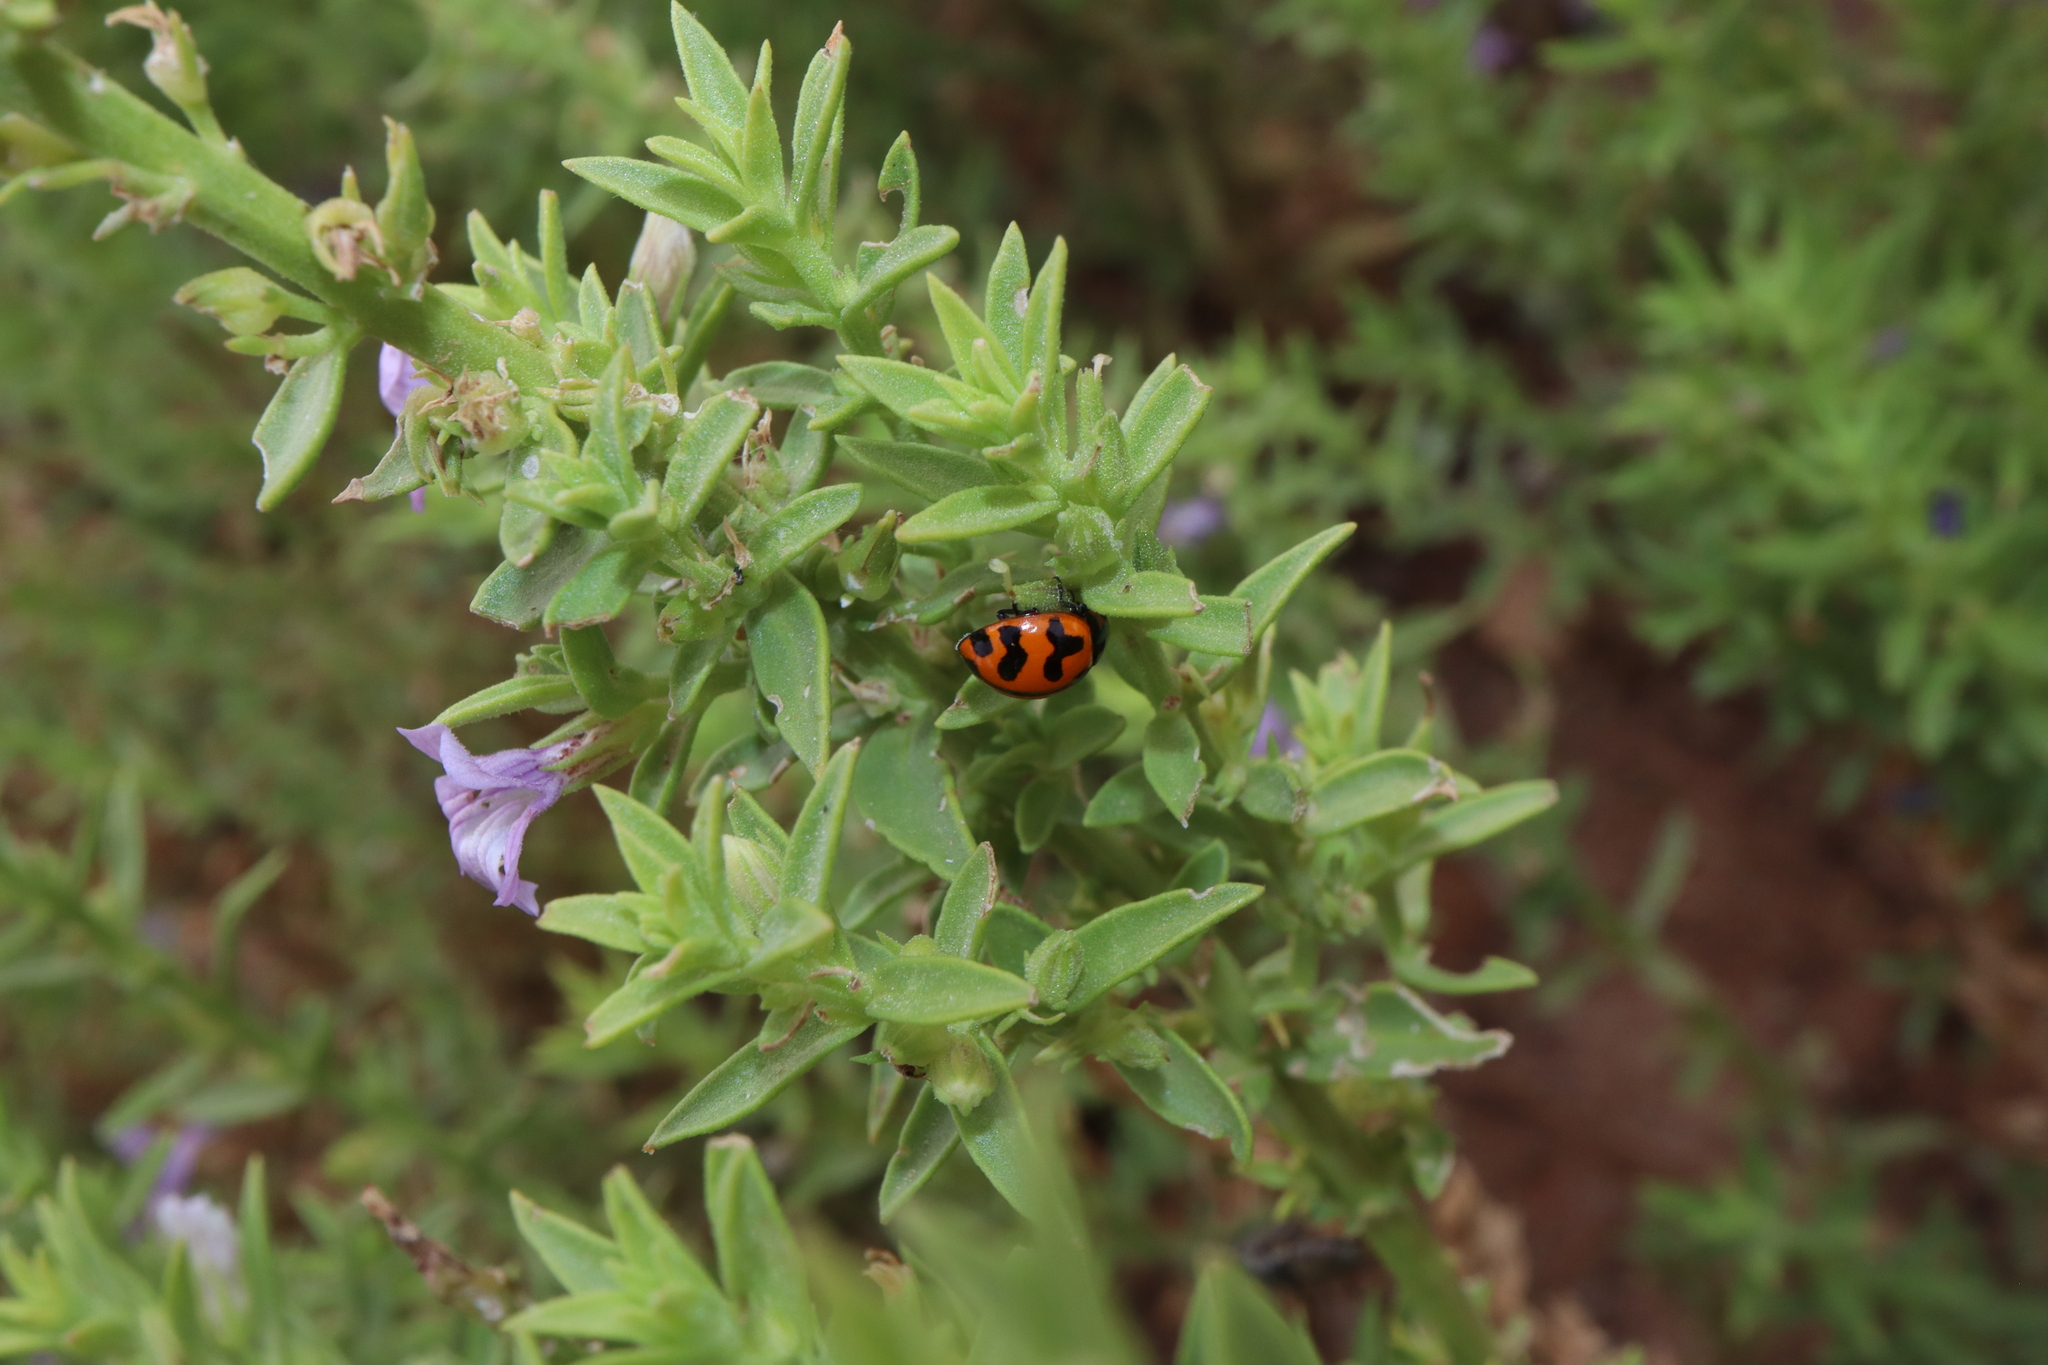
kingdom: Animalia
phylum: Arthropoda
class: Insecta
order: Coleoptera
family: Coccinellidae
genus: Coccinella
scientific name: Coccinella transversalis
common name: Transverse lady beetle
